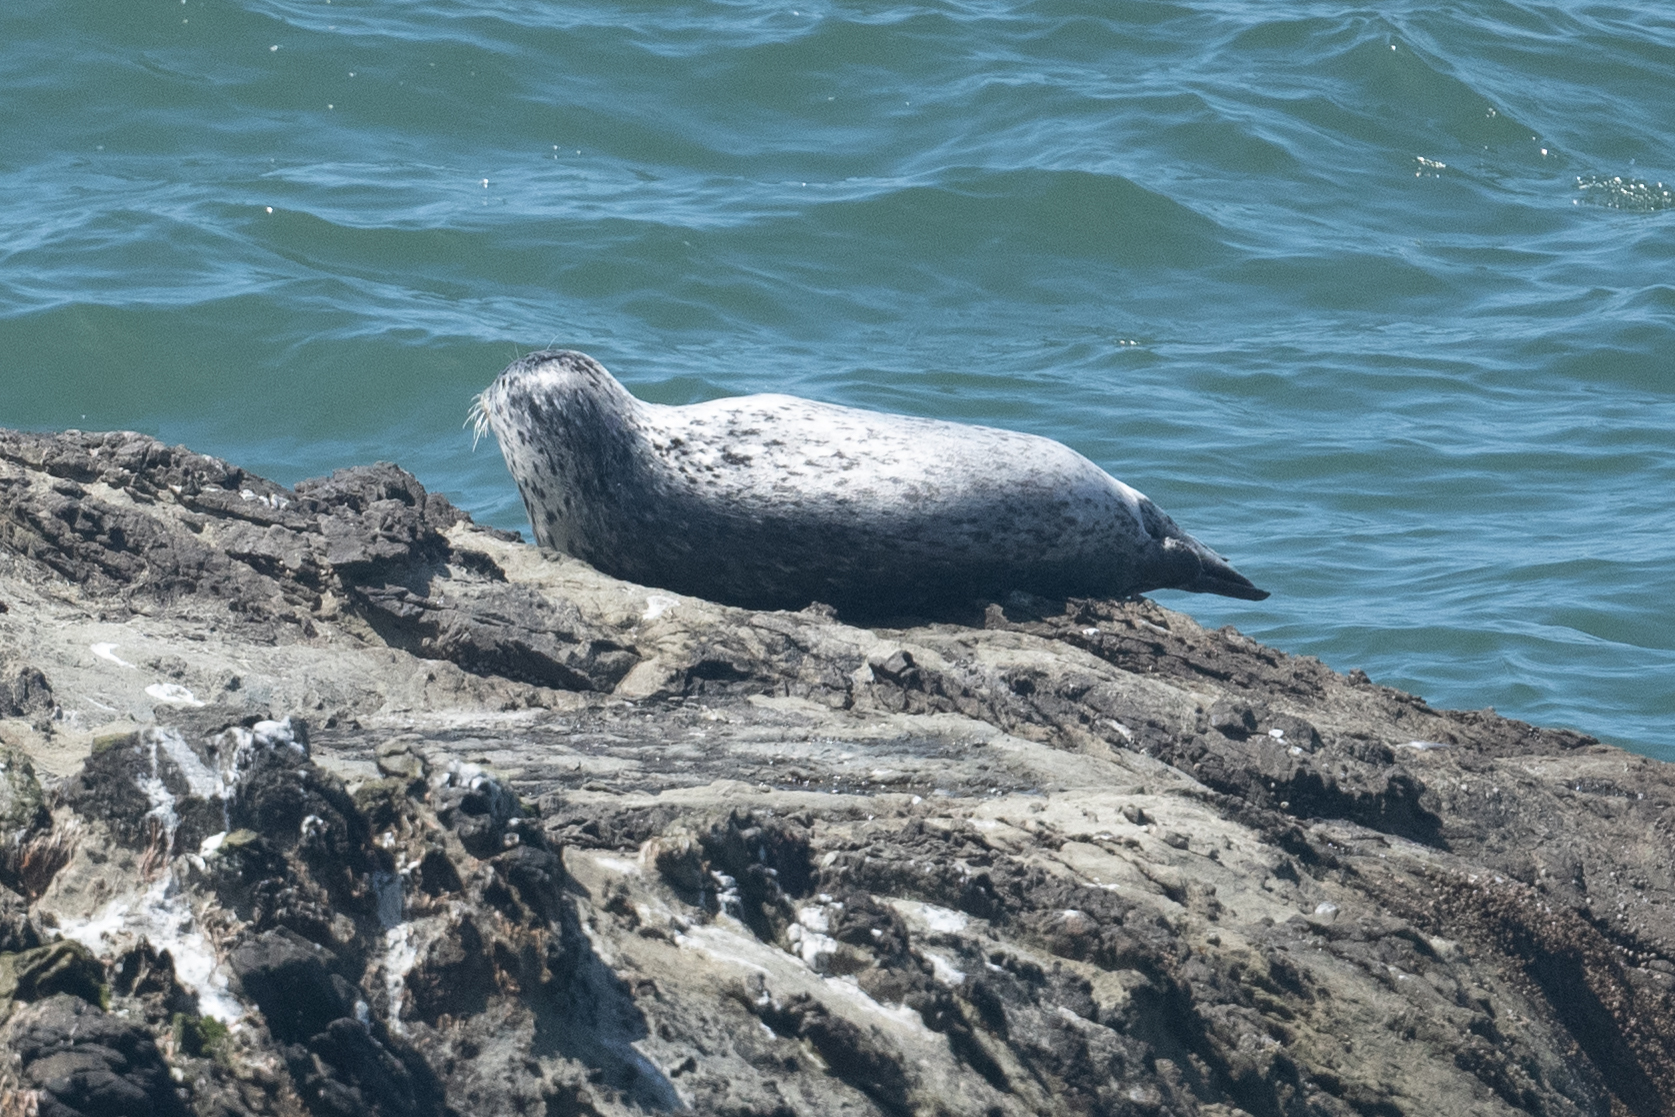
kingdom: Animalia
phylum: Chordata
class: Mammalia
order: Carnivora
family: Phocidae
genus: Phoca
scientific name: Phoca vitulina
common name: Harbor seal
